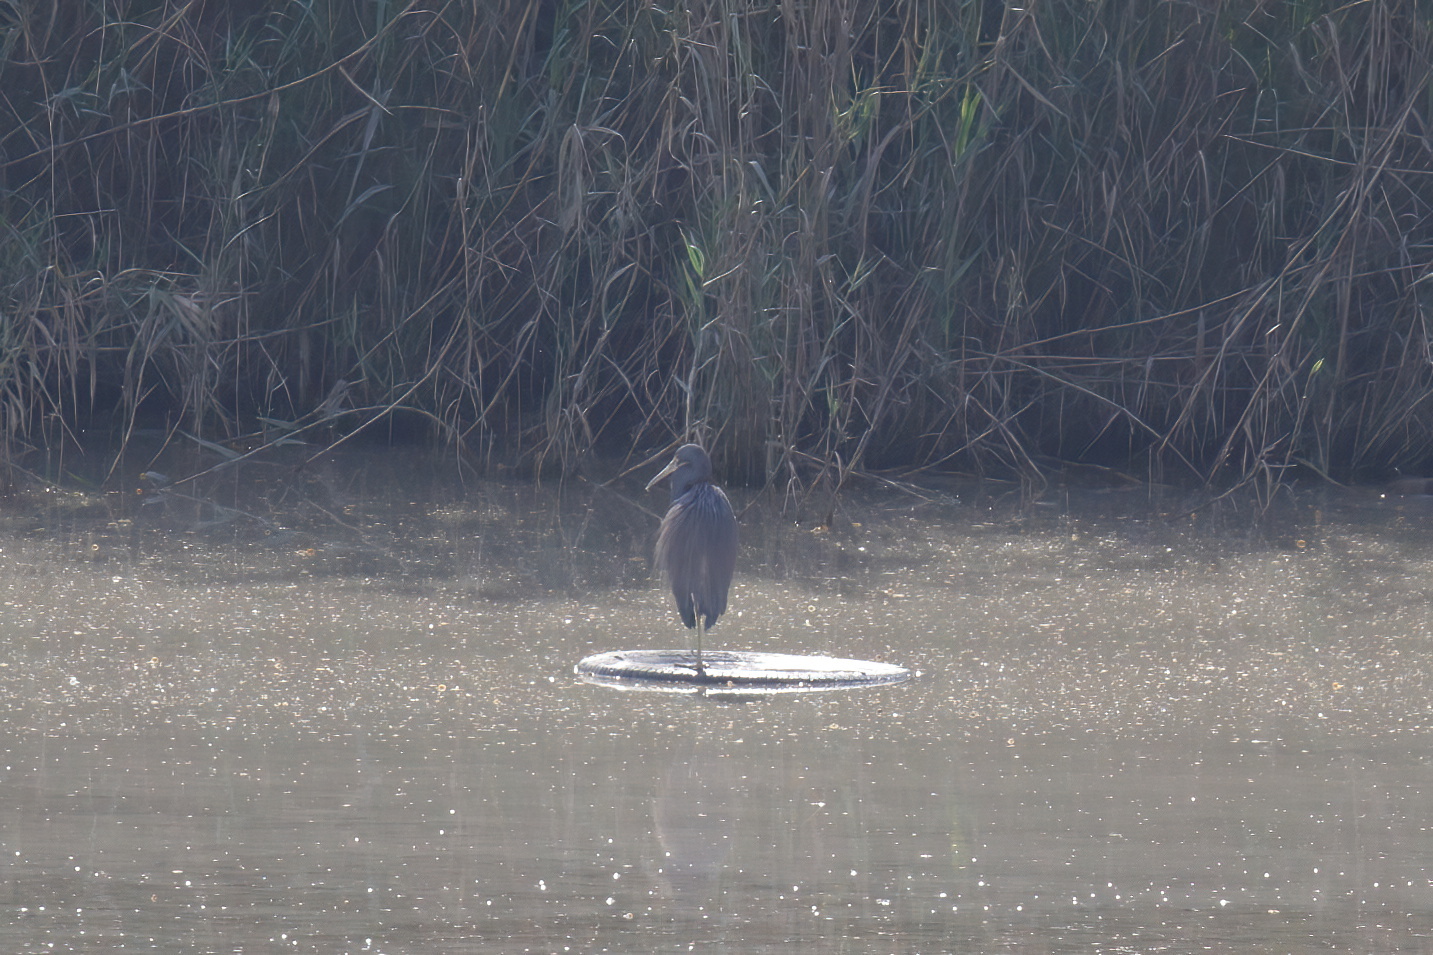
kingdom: Animalia
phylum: Chordata
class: Aves
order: Pelecaniformes
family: Ardeidae
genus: Egretta
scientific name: Egretta tricolor
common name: Tricolored heron
